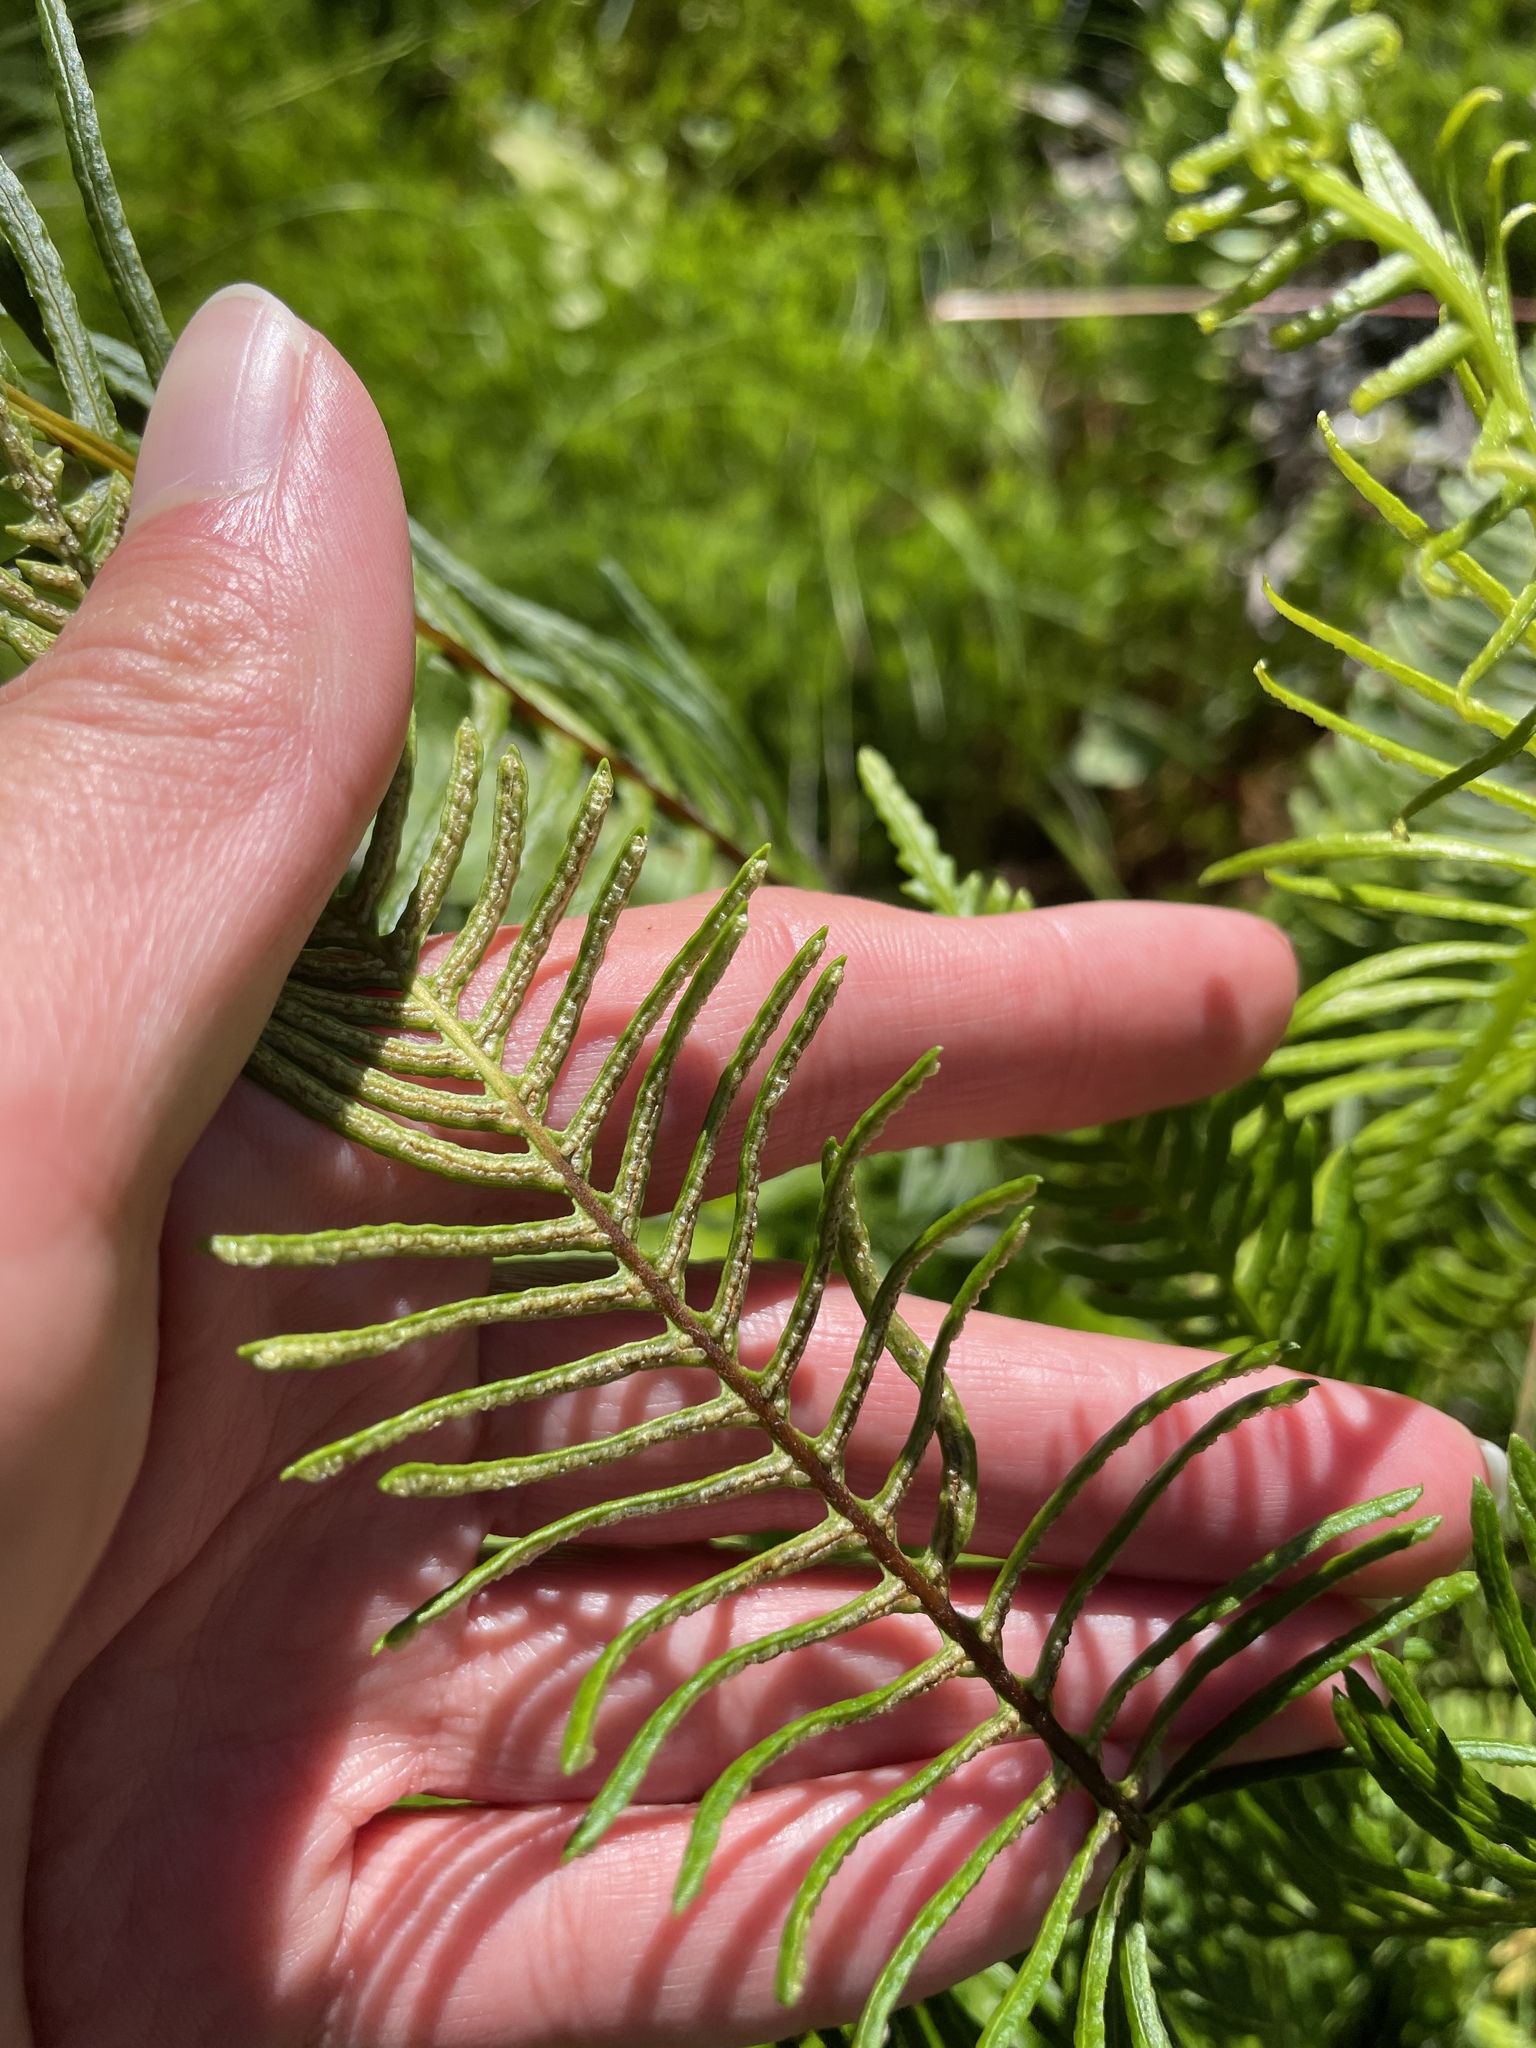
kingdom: Plantae
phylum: Tracheophyta
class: Polypodiopsida
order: Polypodiales
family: Blechnaceae
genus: Struthiopteris
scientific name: Struthiopteris spicant
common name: Deer fern
